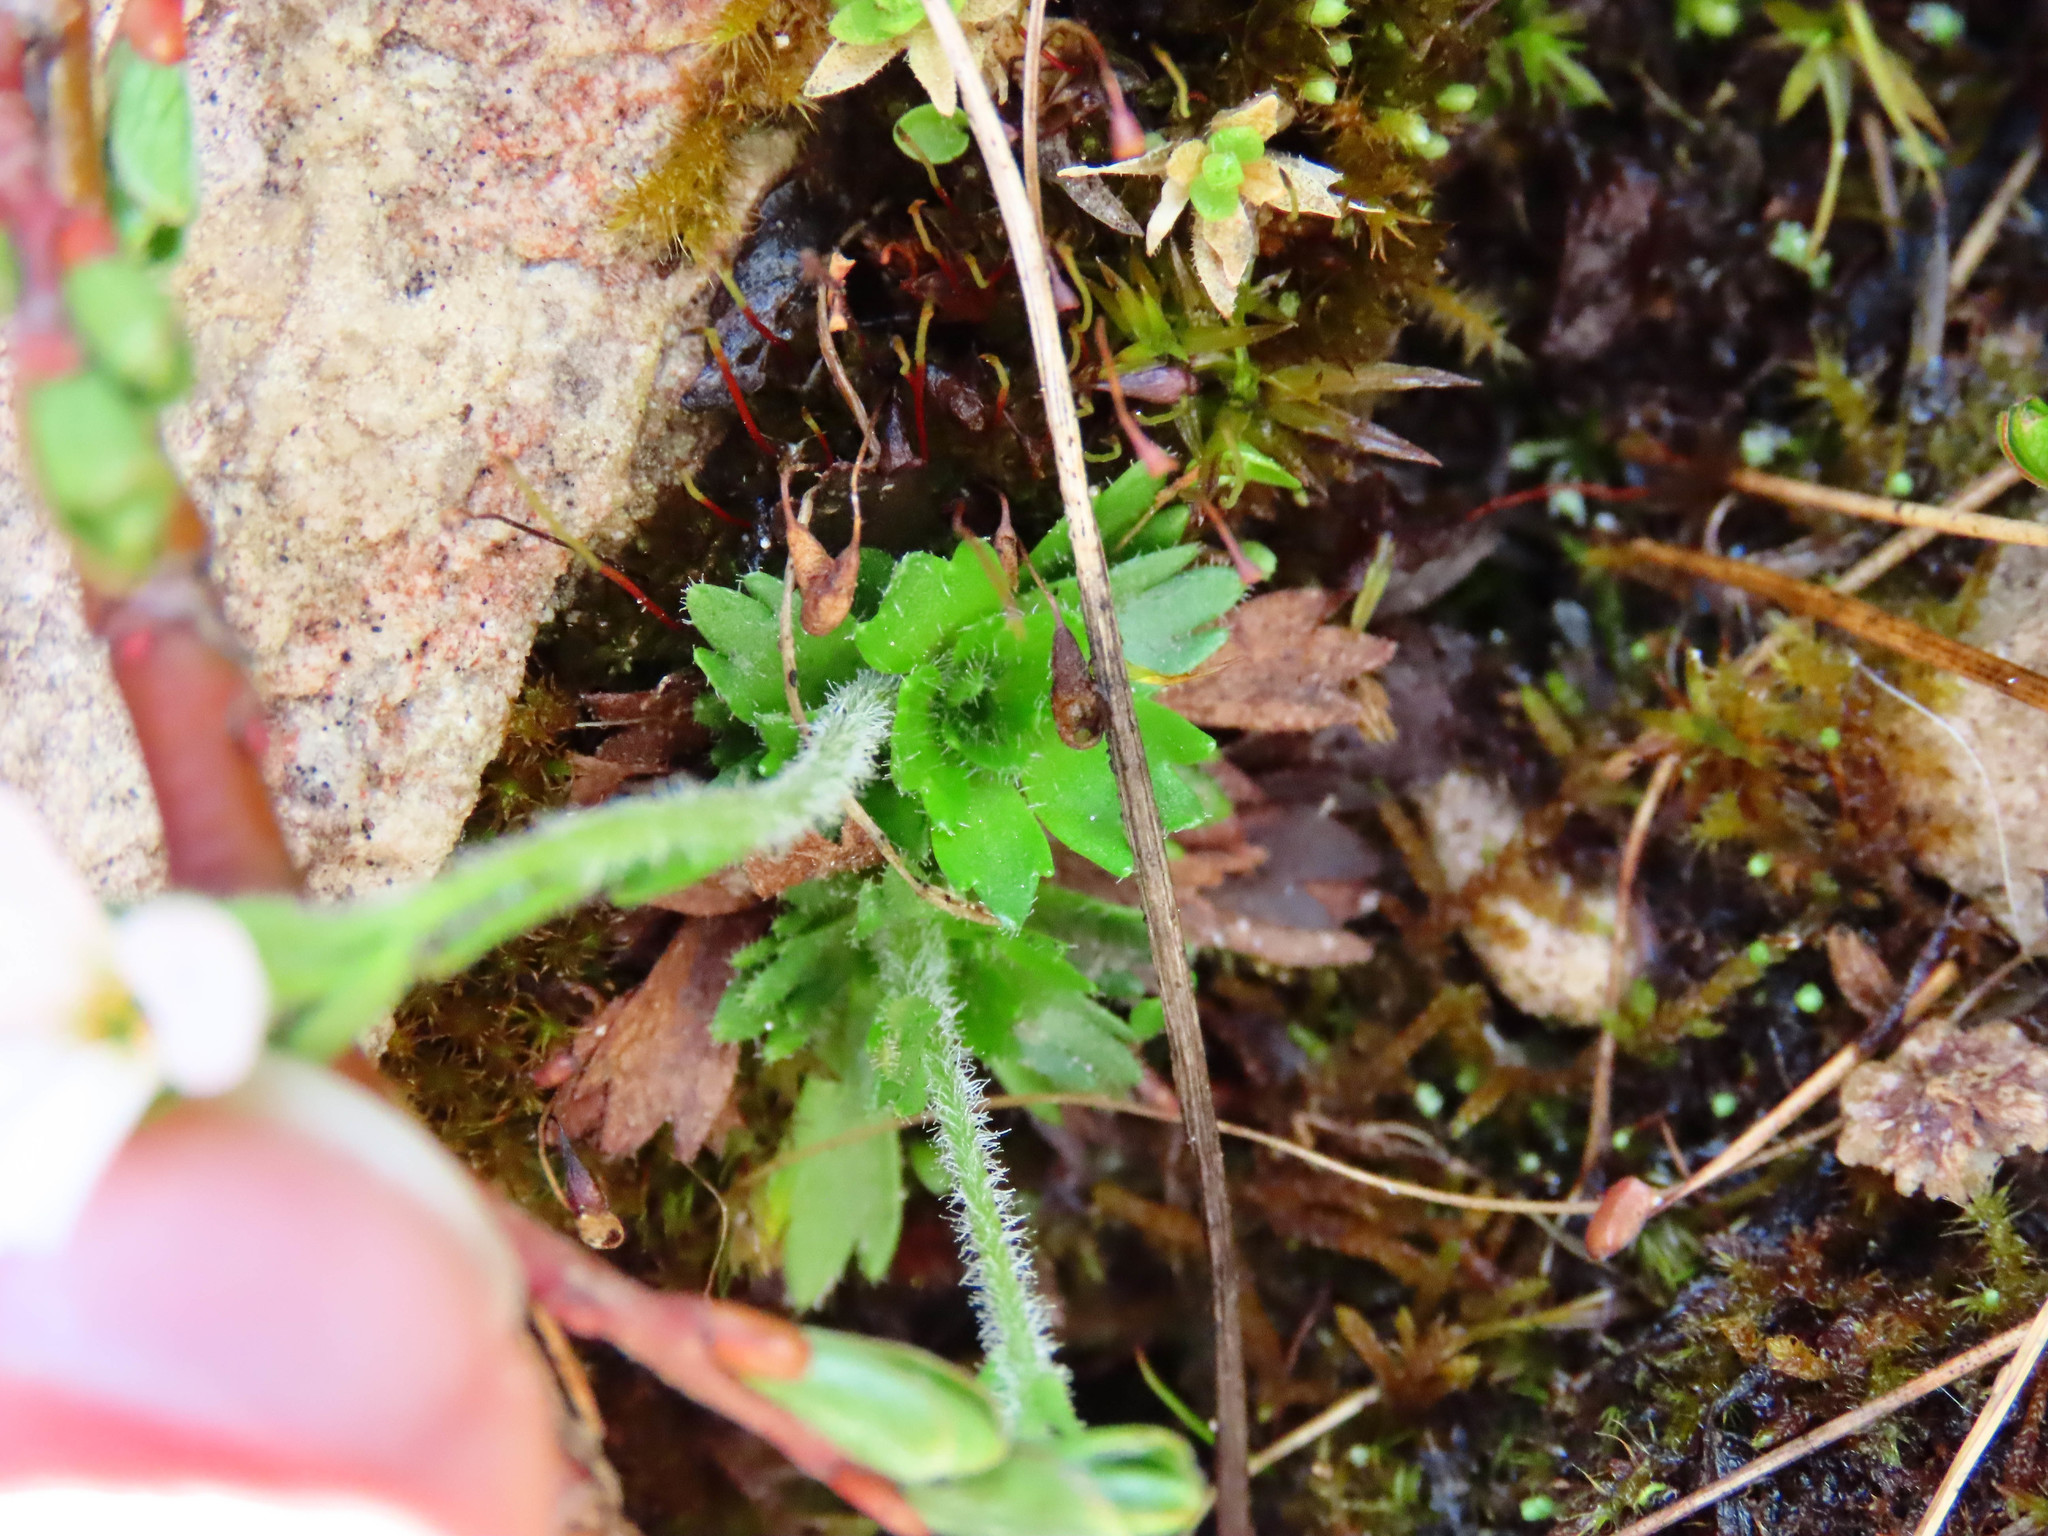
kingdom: Plantae
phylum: Tracheophyta
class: Magnoliopsida
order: Saxifragales
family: Saxifragaceae
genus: Saxifraga
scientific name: Saxifraga italica
